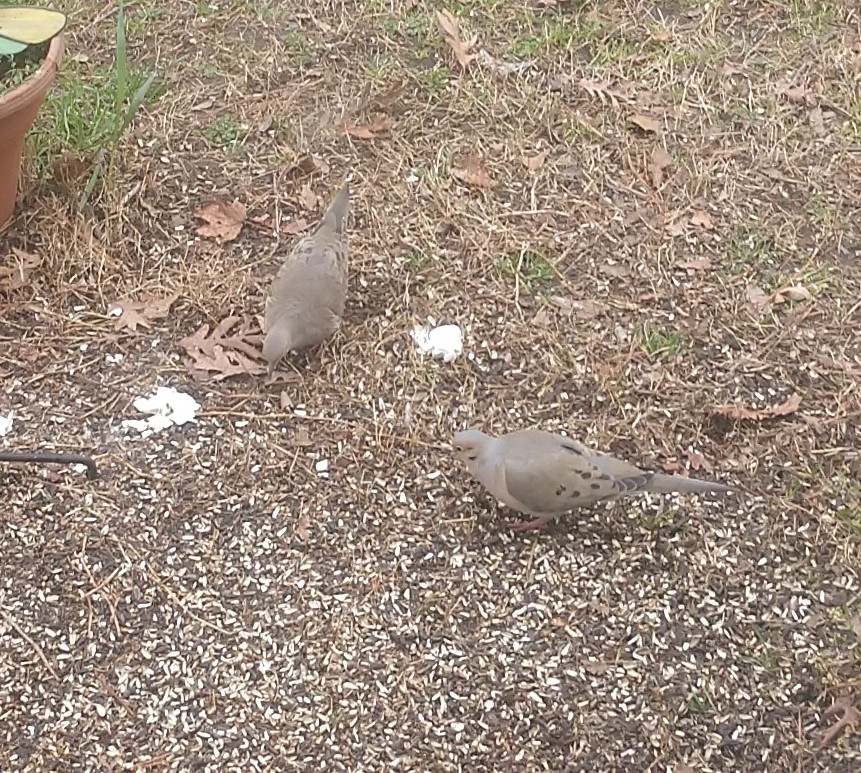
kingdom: Animalia
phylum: Chordata
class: Aves
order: Columbiformes
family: Columbidae
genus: Zenaida
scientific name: Zenaida macroura
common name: Mourning dove
